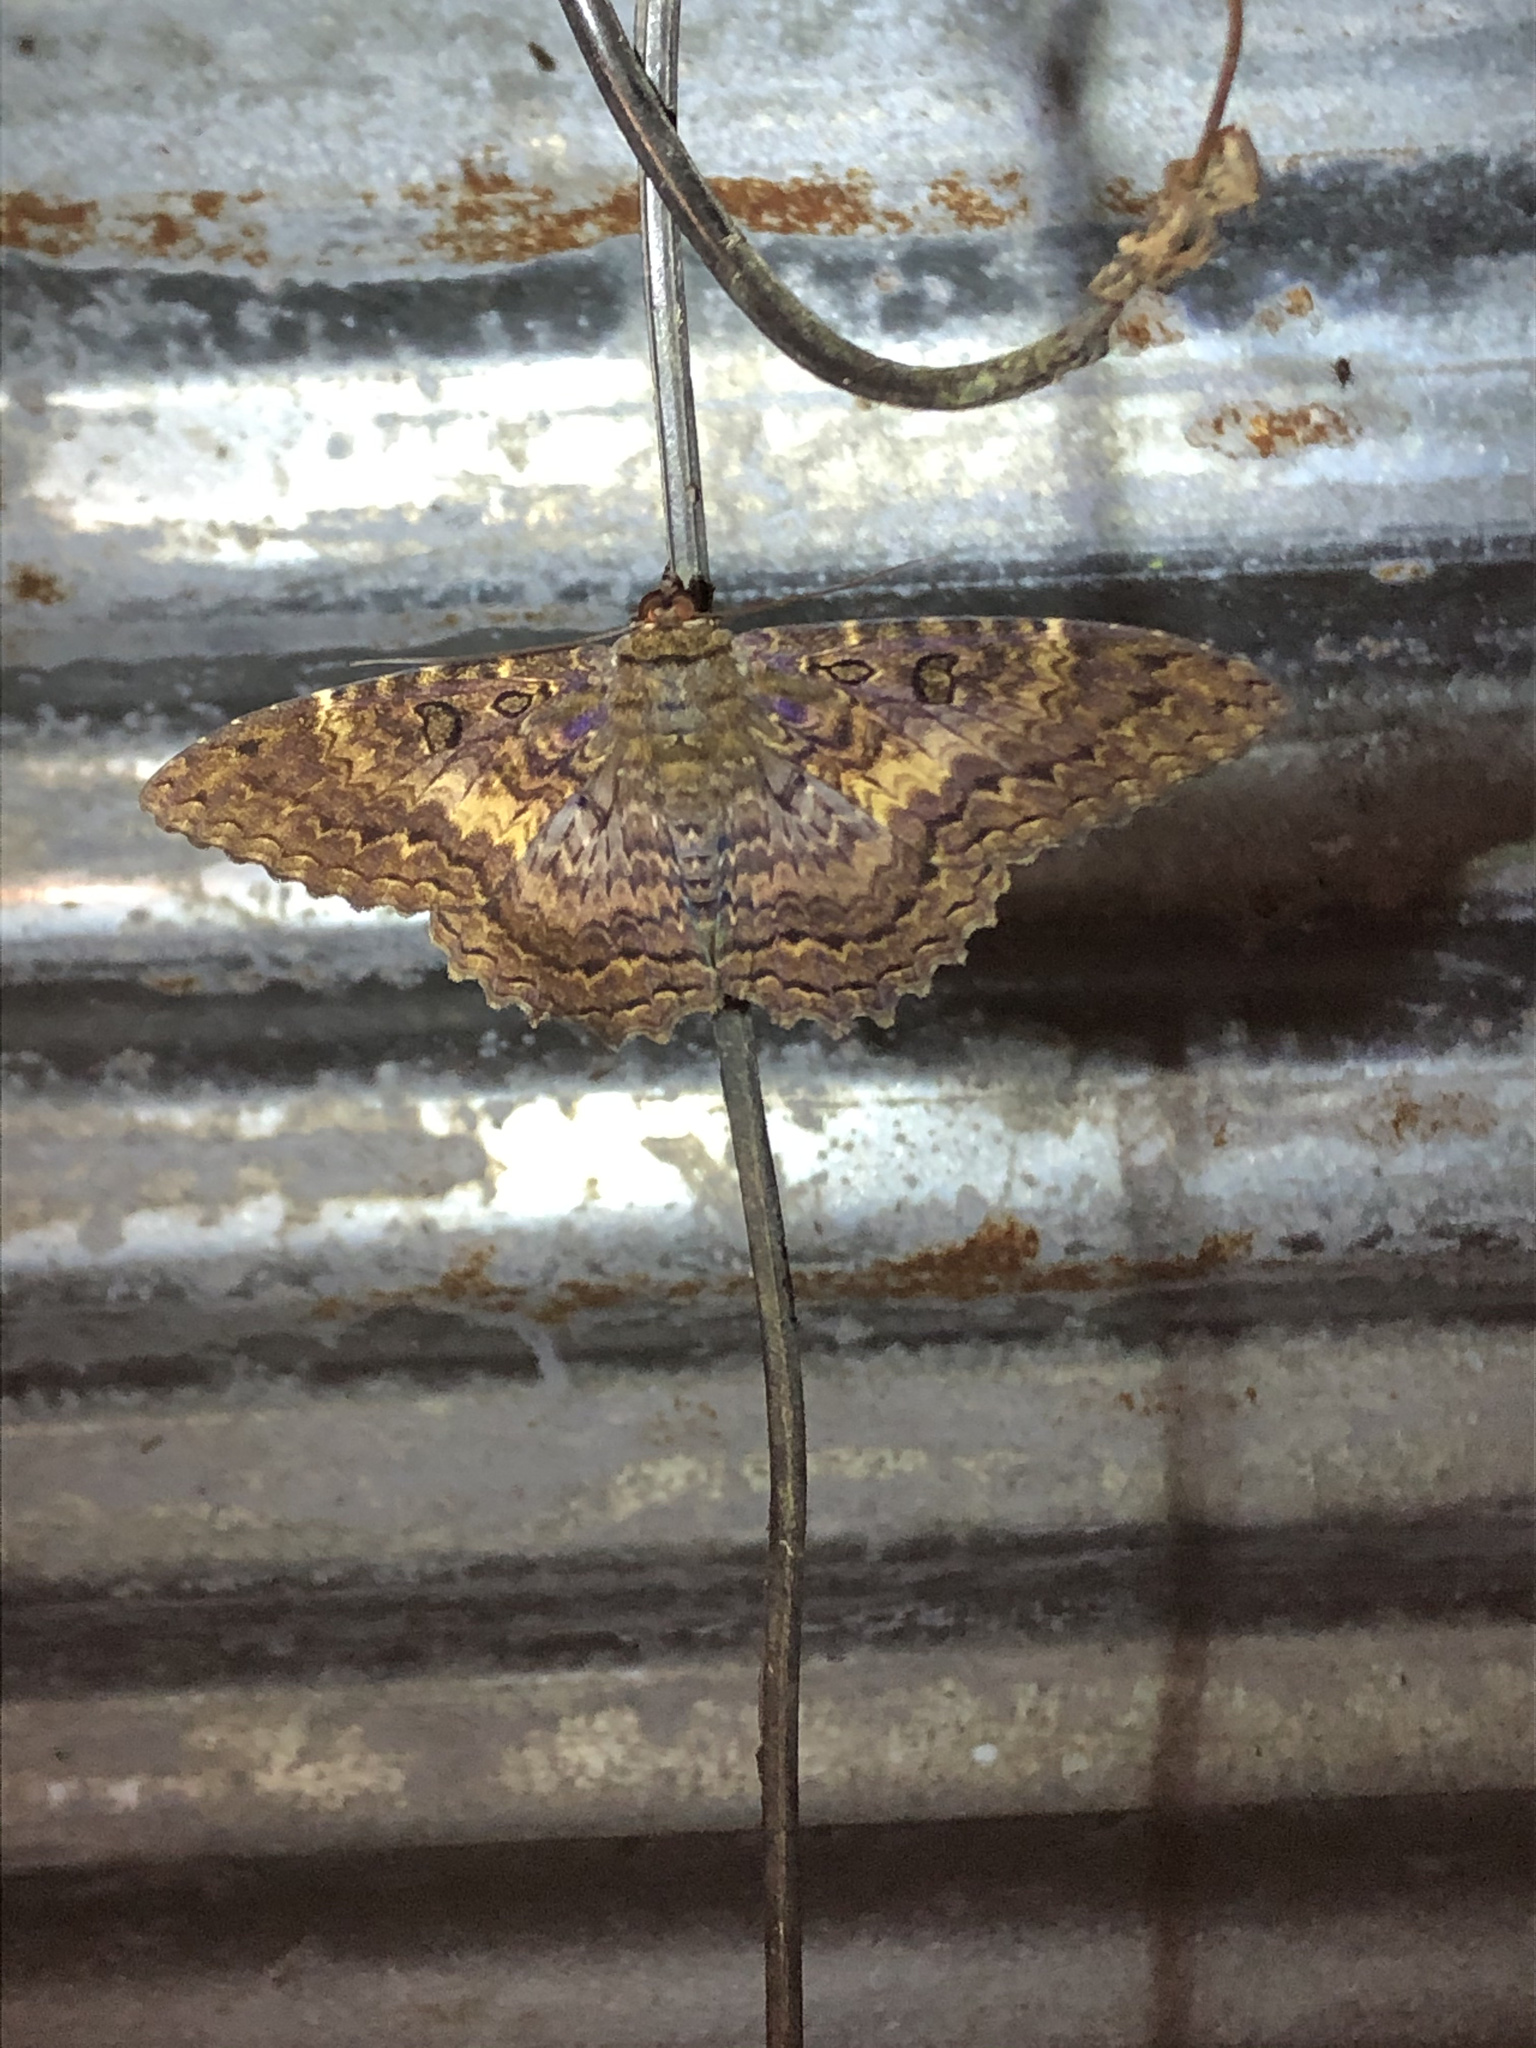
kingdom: Animalia
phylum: Arthropoda
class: Insecta
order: Lepidoptera
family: Erebidae
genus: Feigeria
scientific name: Feigeria
